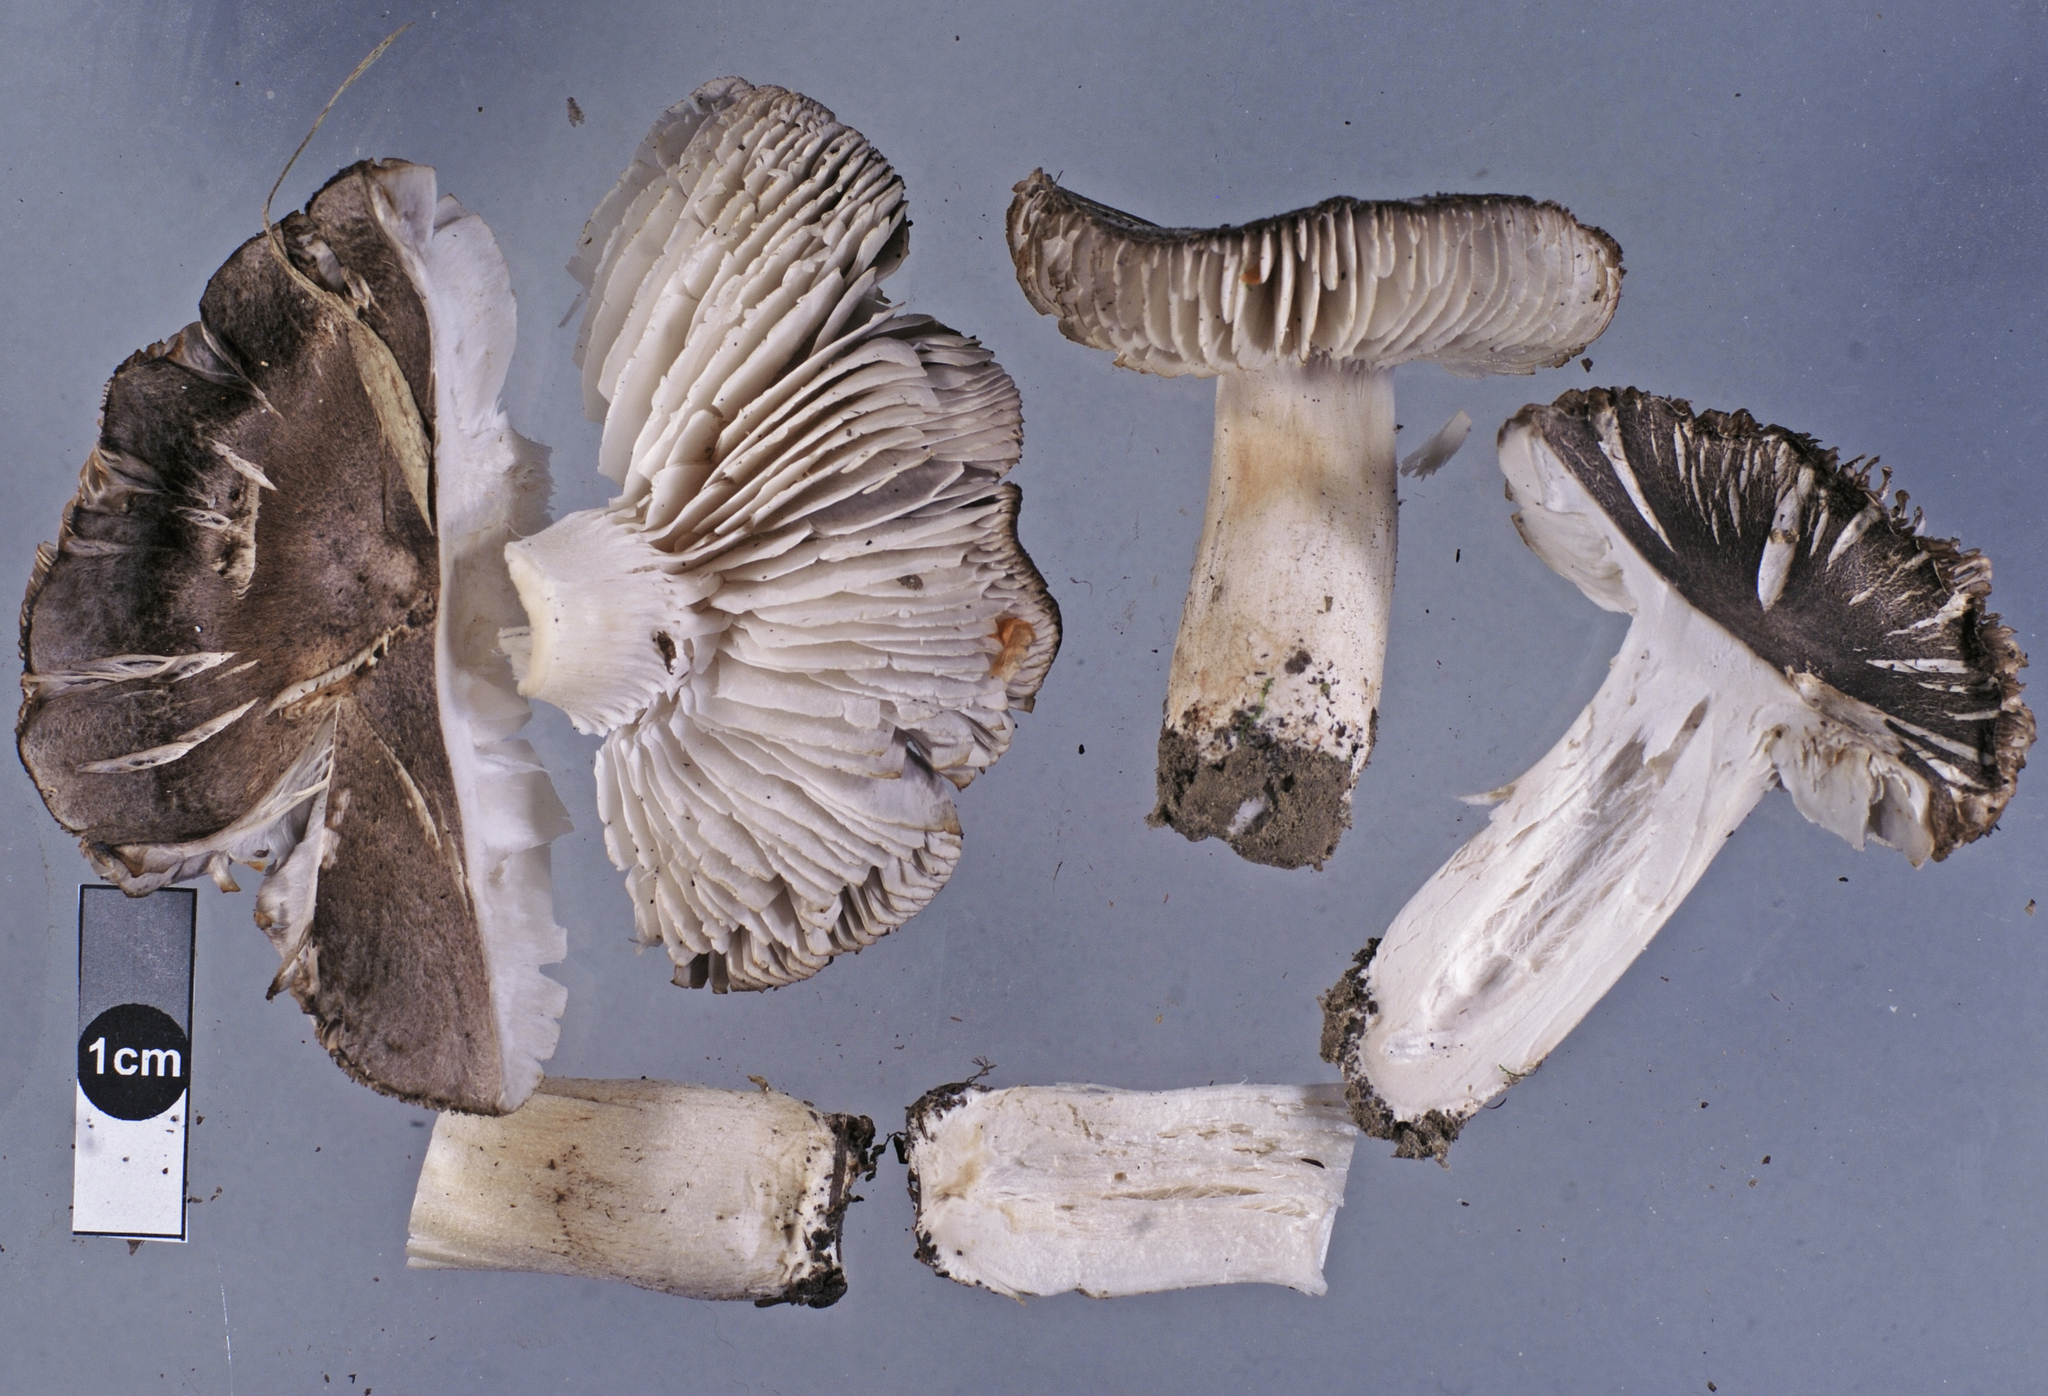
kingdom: Fungi
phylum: Basidiomycota
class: Agaricomycetes
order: Agaricales
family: Tricholomataceae
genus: Tricholoma
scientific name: Tricholoma terreum
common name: Grey knight
